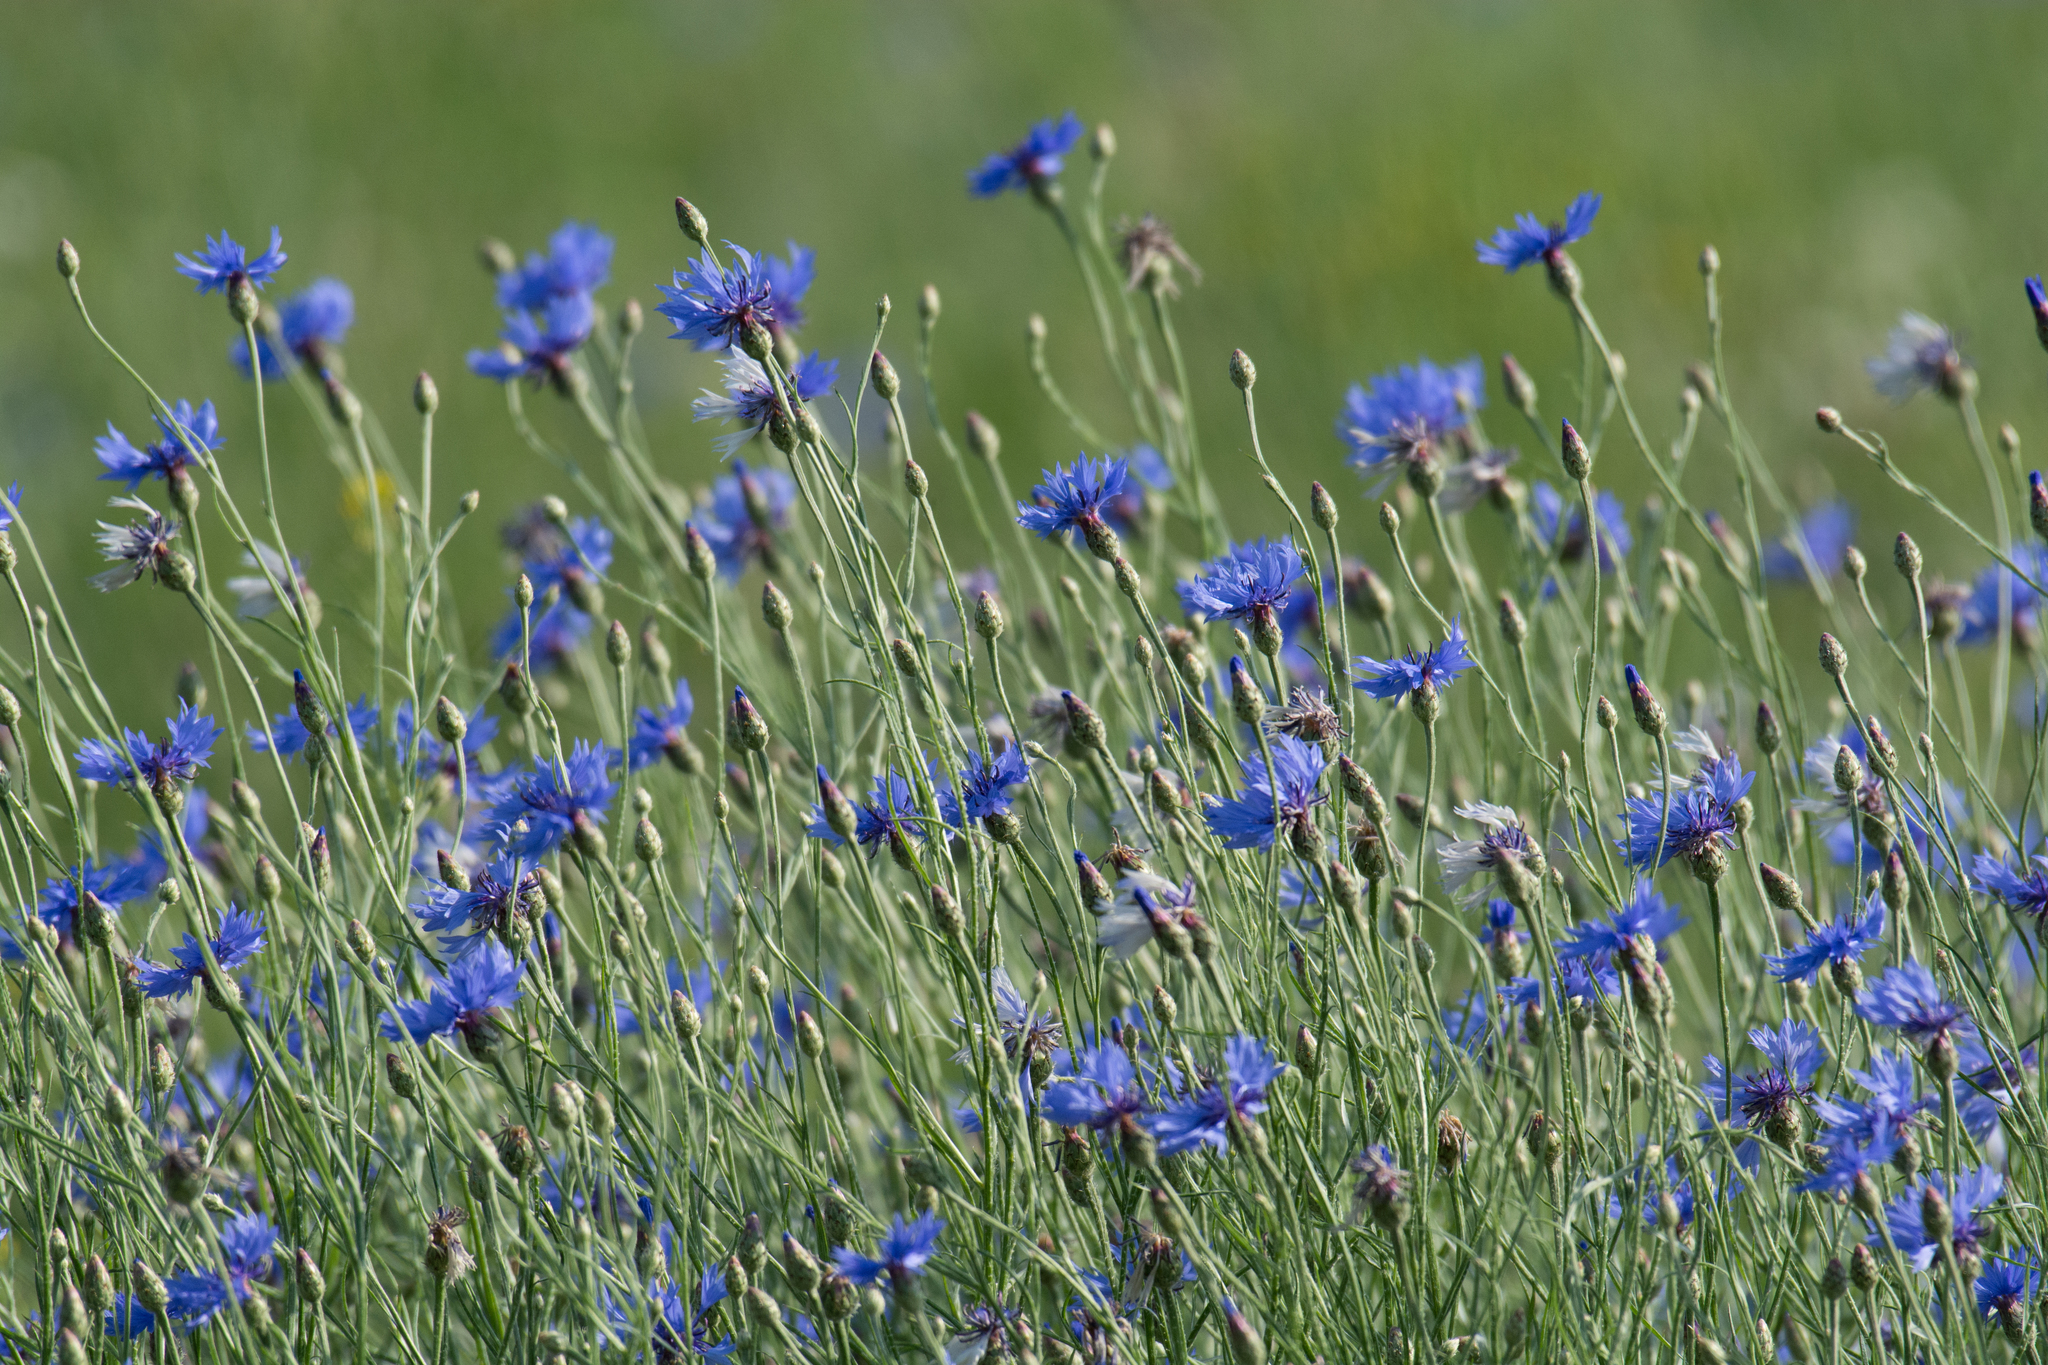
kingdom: Plantae
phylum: Tracheophyta
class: Magnoliopsida
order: Asterales
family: Asteraceae
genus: Centaurea
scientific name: Centaurea cyanus
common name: Cornflower
